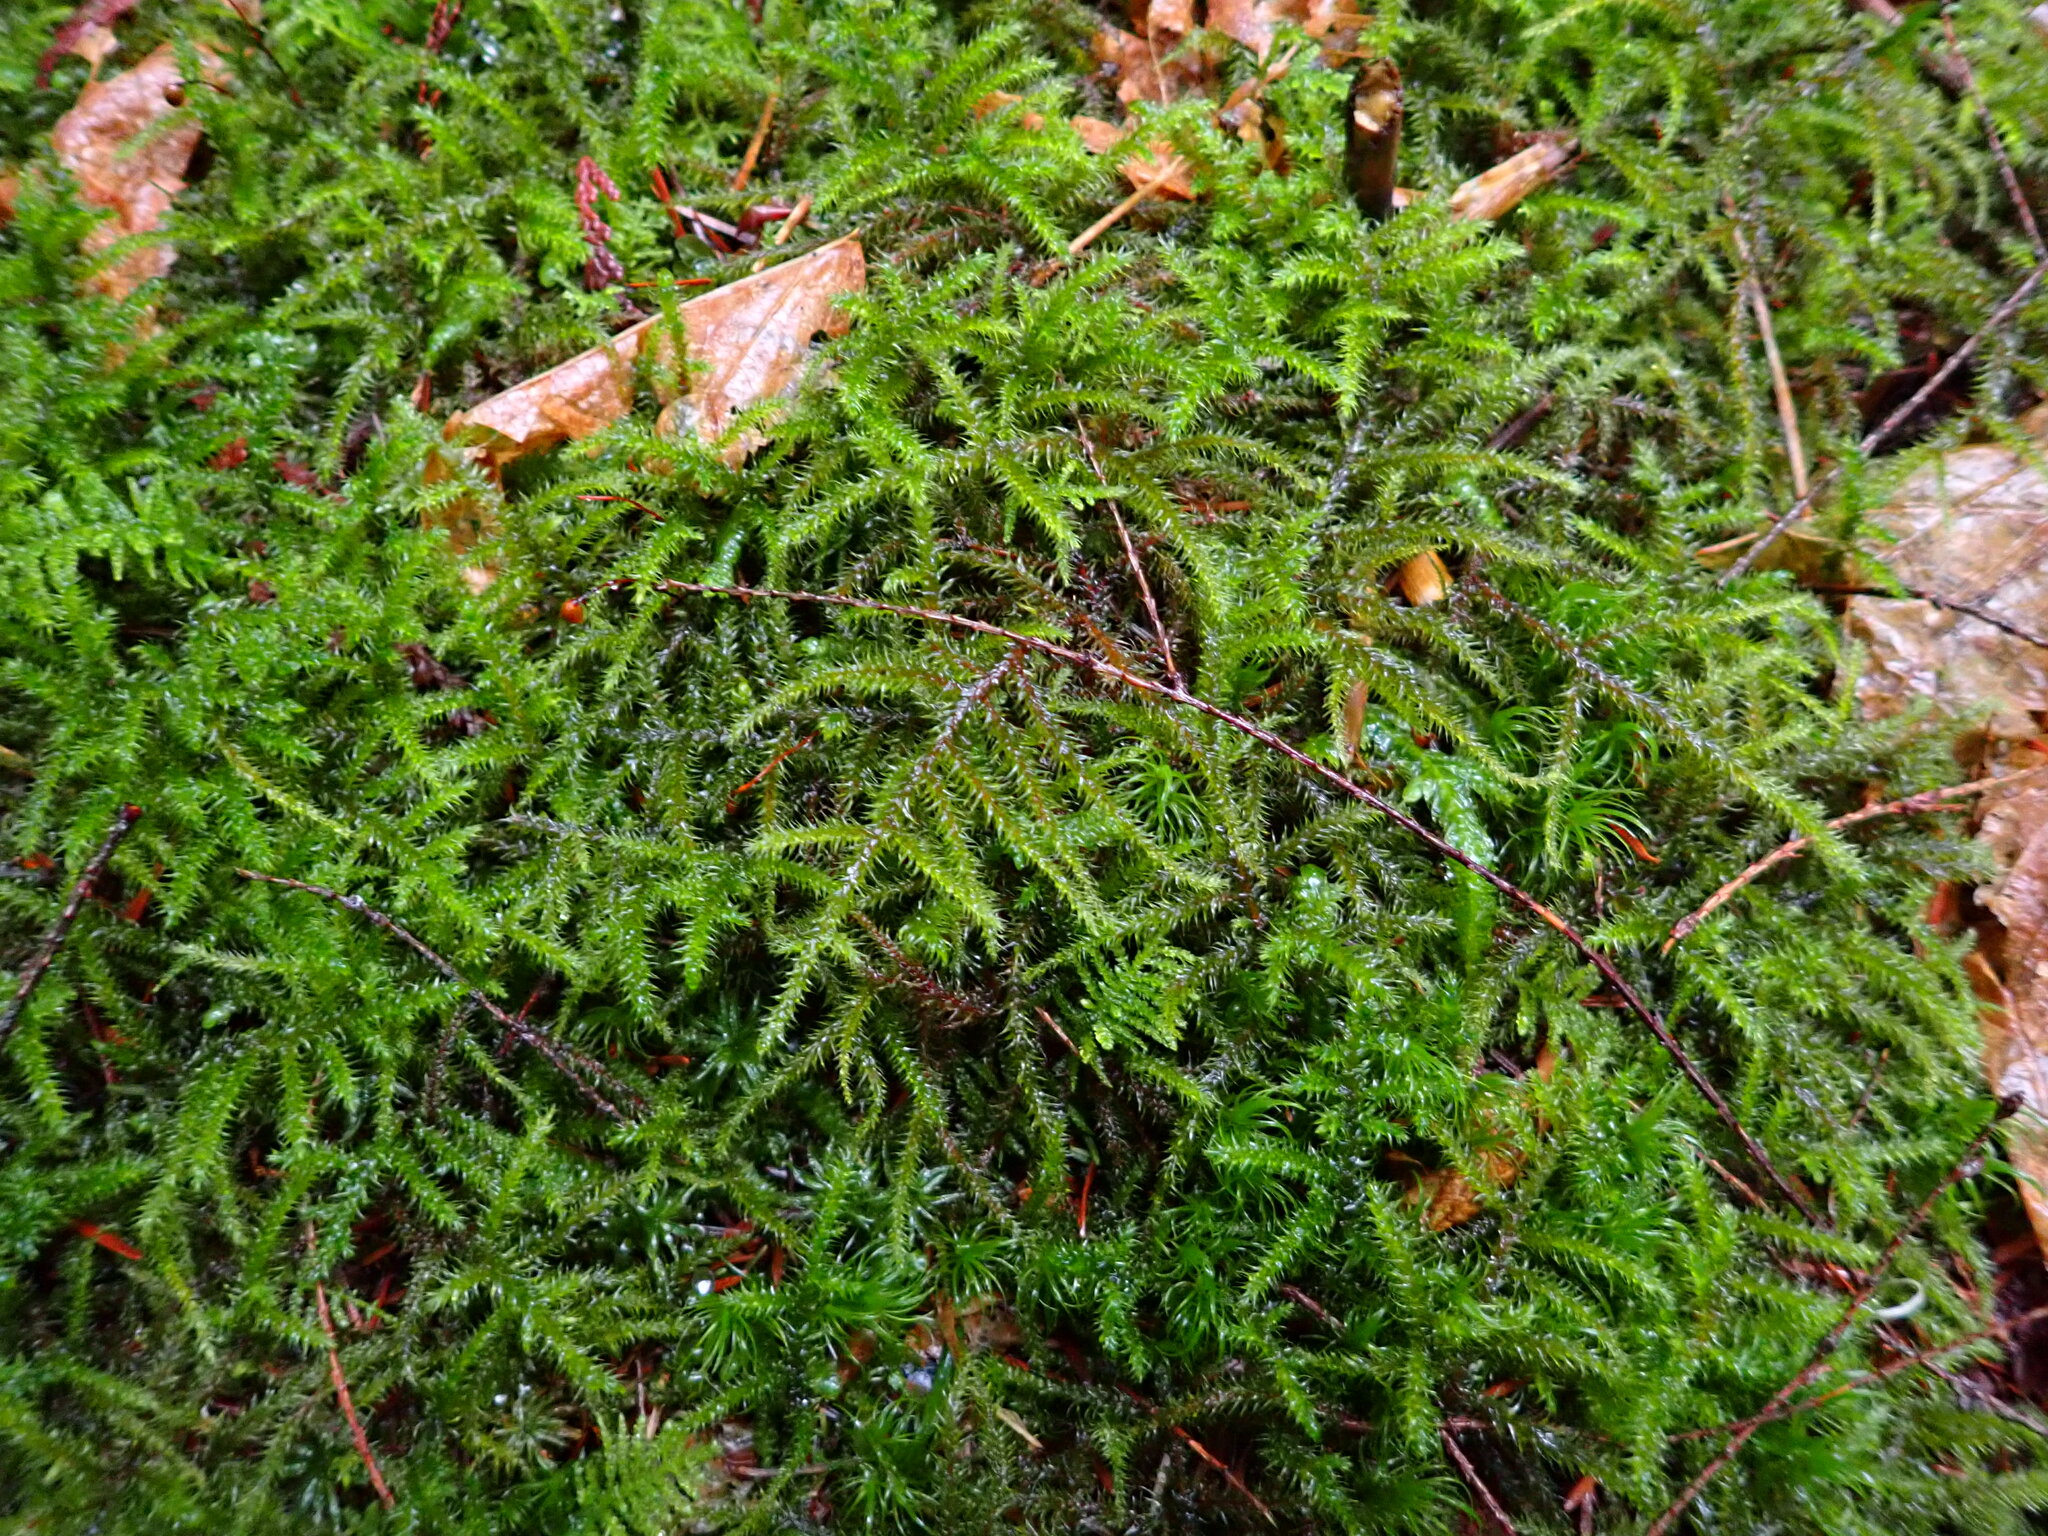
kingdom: Plantae
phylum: Bryophyta
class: Bryopsida
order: Hypnales
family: Hylocomiaceae
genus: Rhytidiadelphus
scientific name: Rhytidiadelphus loreus
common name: Lanky moss
